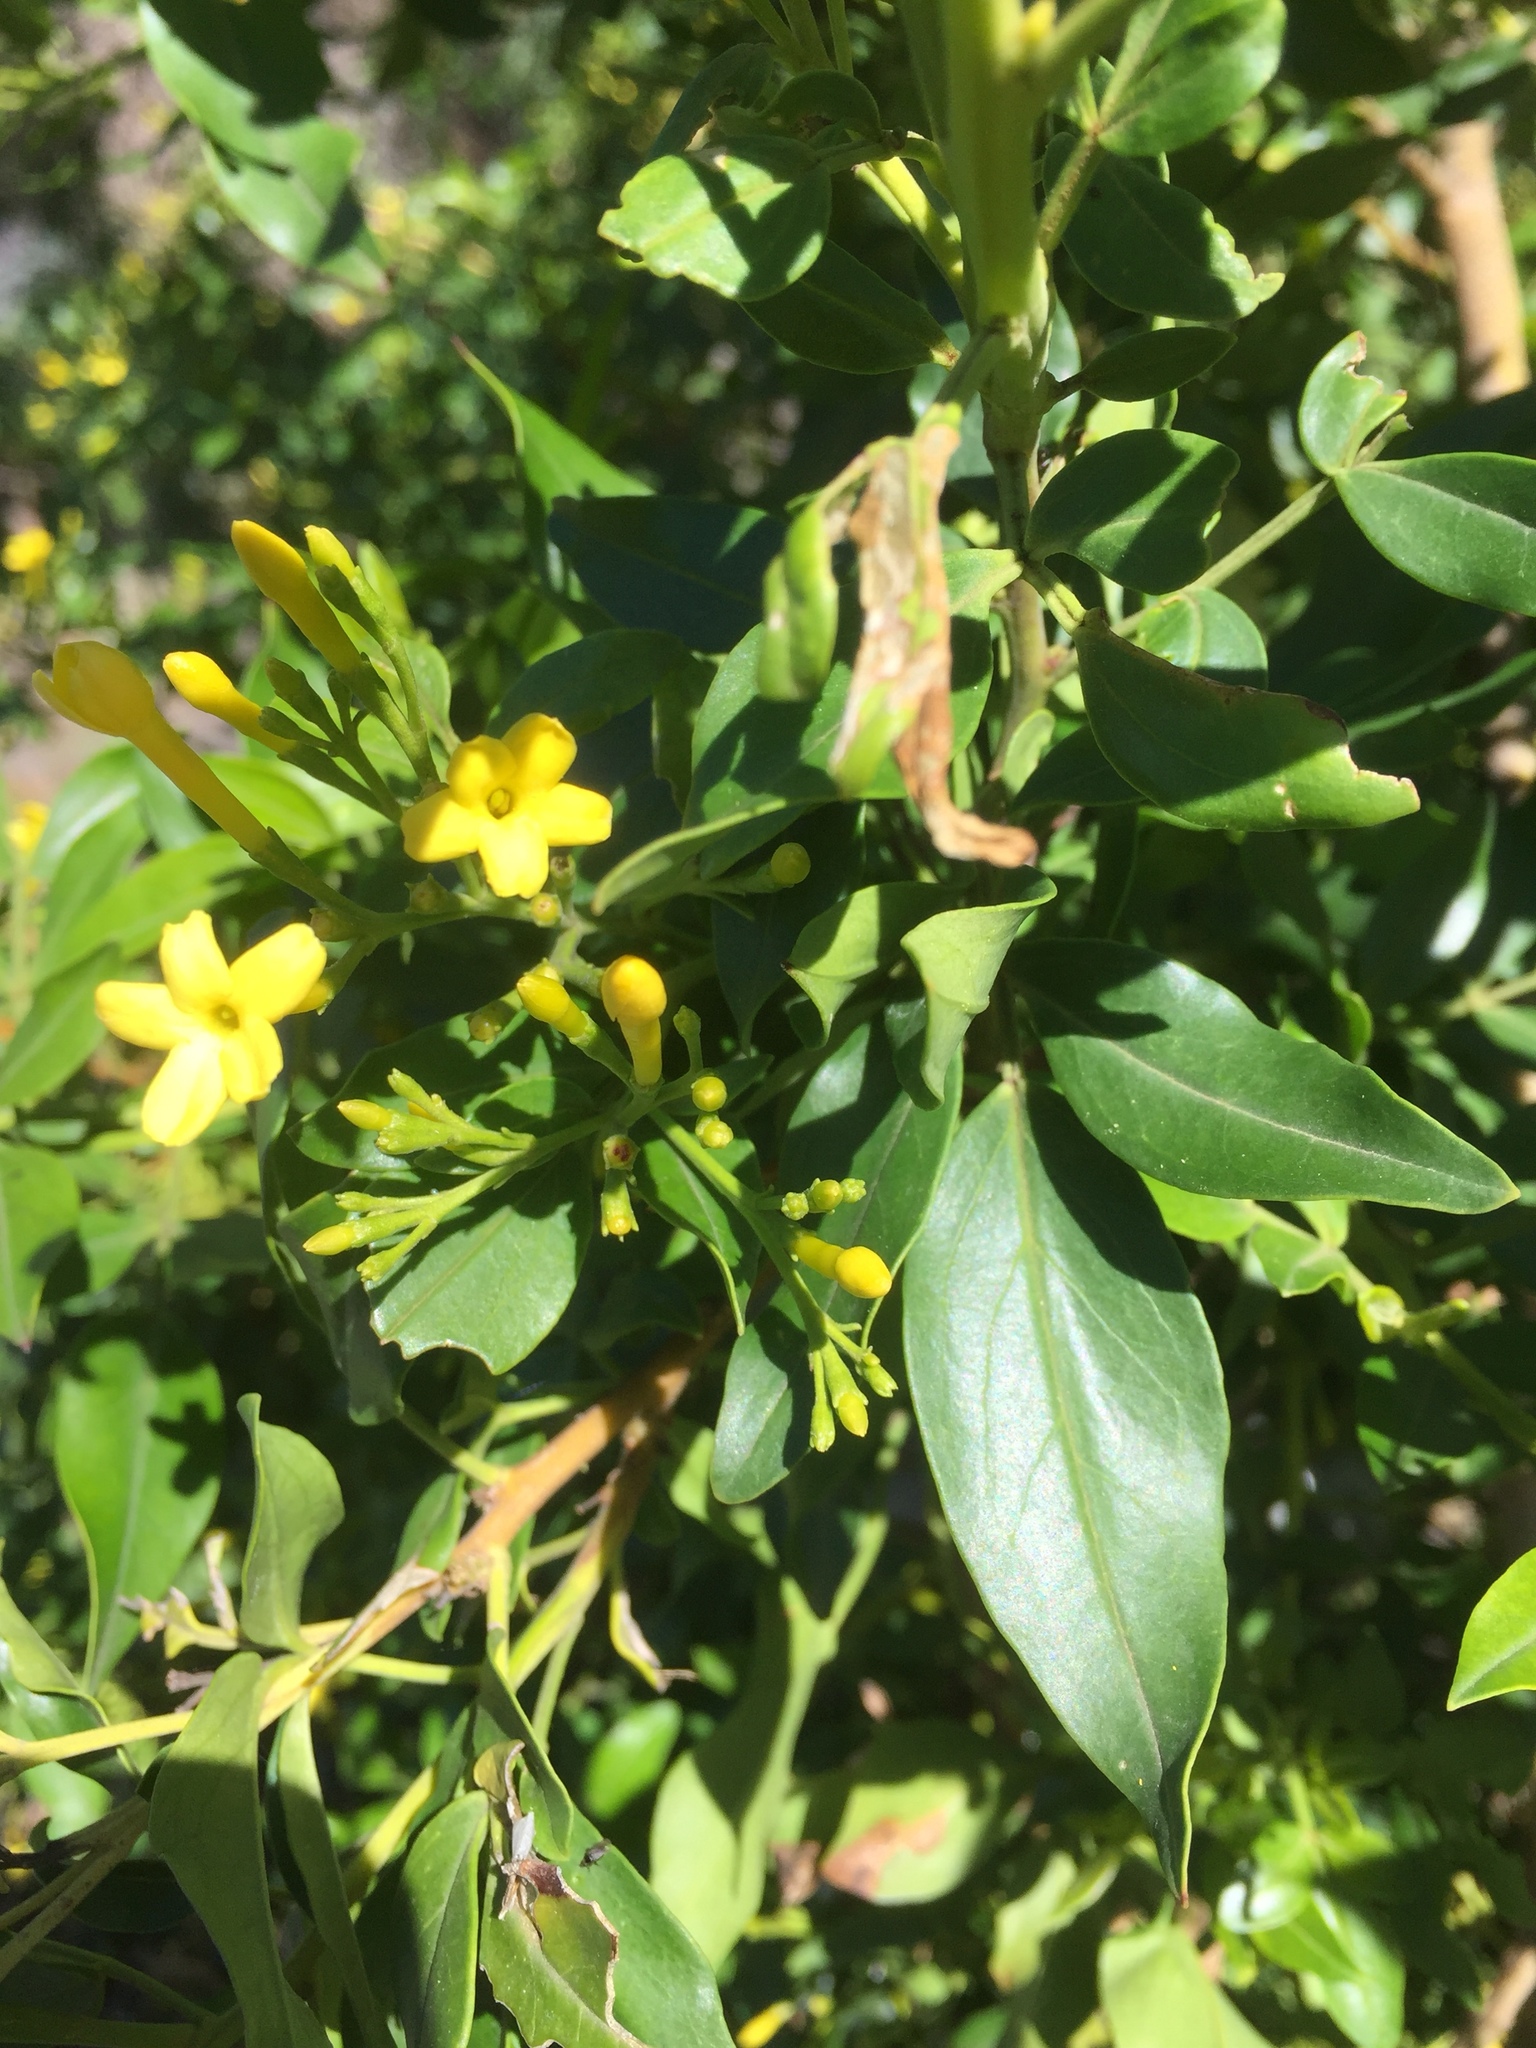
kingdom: Plantae
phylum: Tracheophyta
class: Magnoliopsida
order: Lamiales
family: Oleaceae
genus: Chrysojasminum
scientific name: Chrysojasminum odoratissimum
